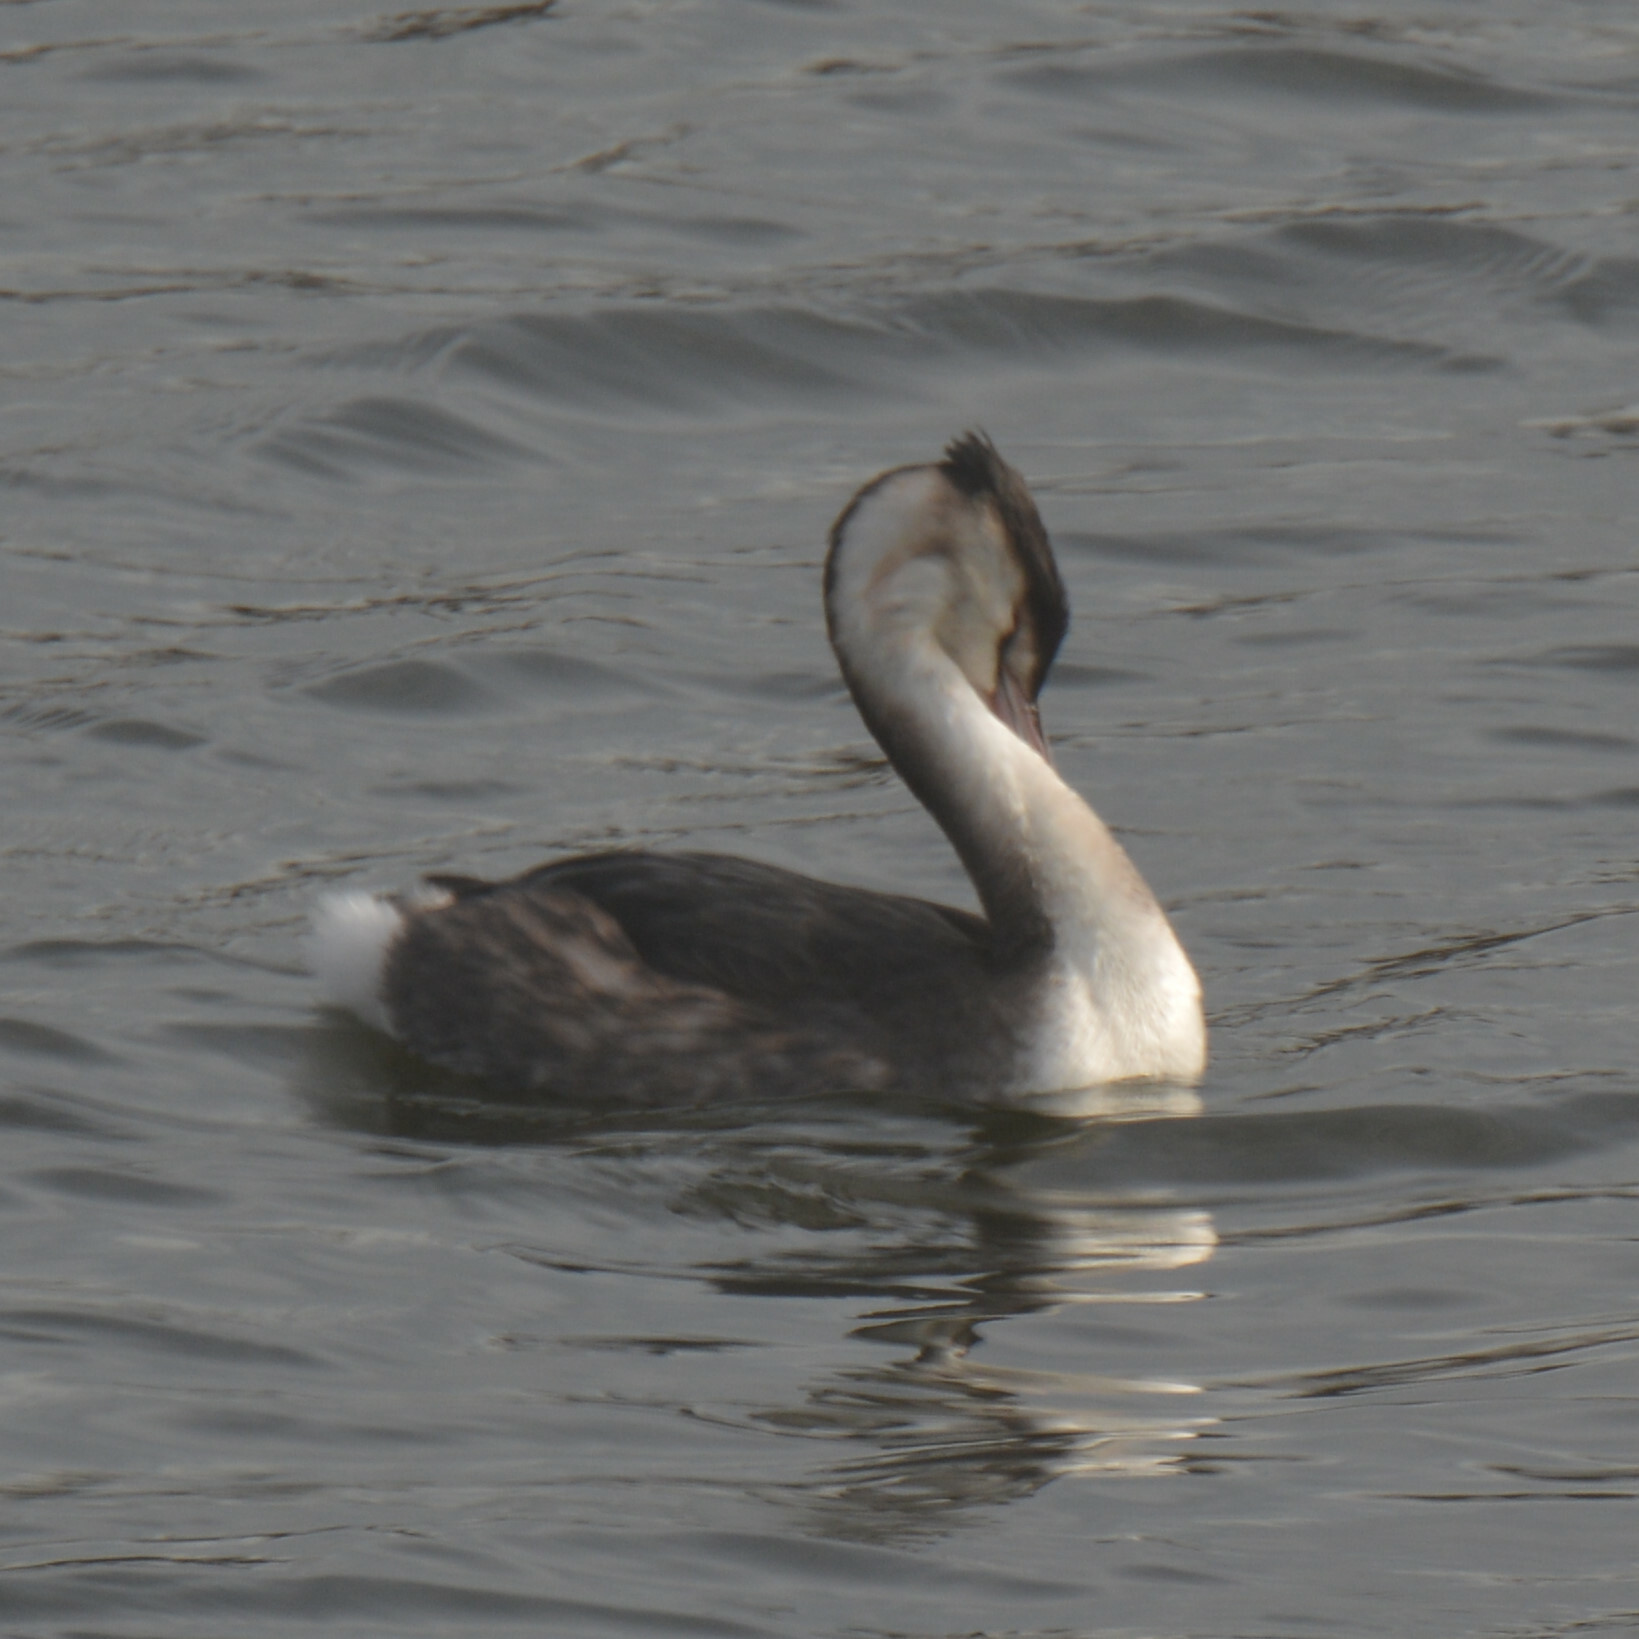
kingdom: Animalia
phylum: Chordata
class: Aves
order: Podicipediformes
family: Podicipedidae
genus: Podiceps
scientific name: Podiceps cristatus
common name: Great crested grebe
